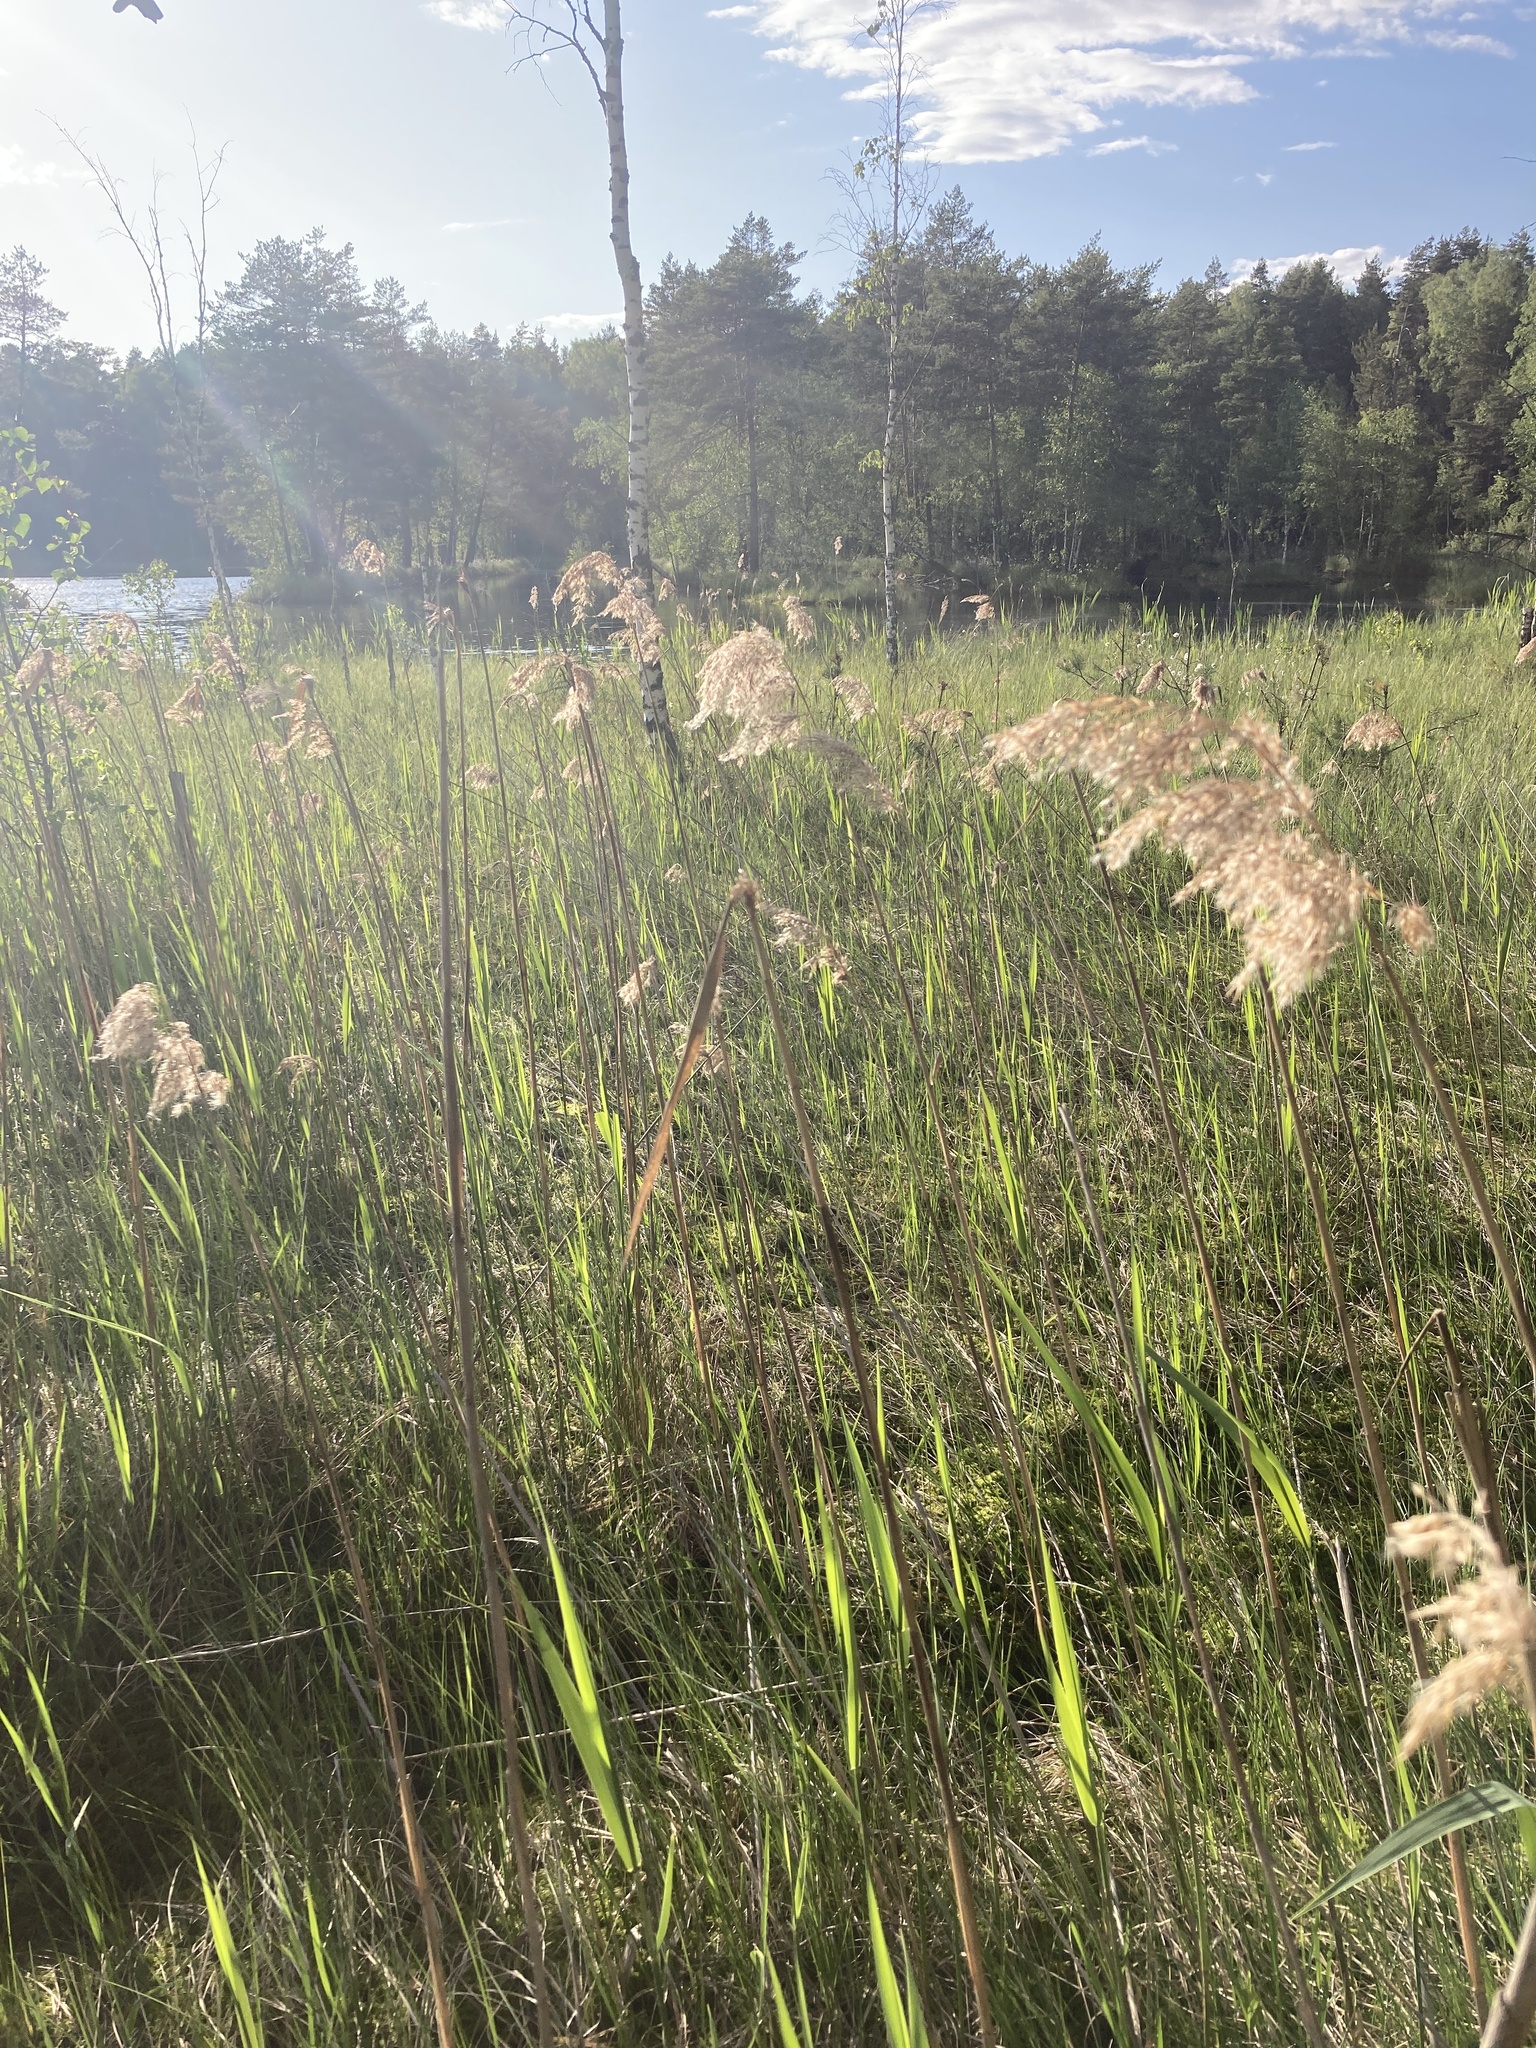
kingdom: Plantae
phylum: Tracheophyta
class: Liliopsida
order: Poales
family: Poaceae
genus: Phragmites
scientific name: Phragmites australis
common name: Common reed
